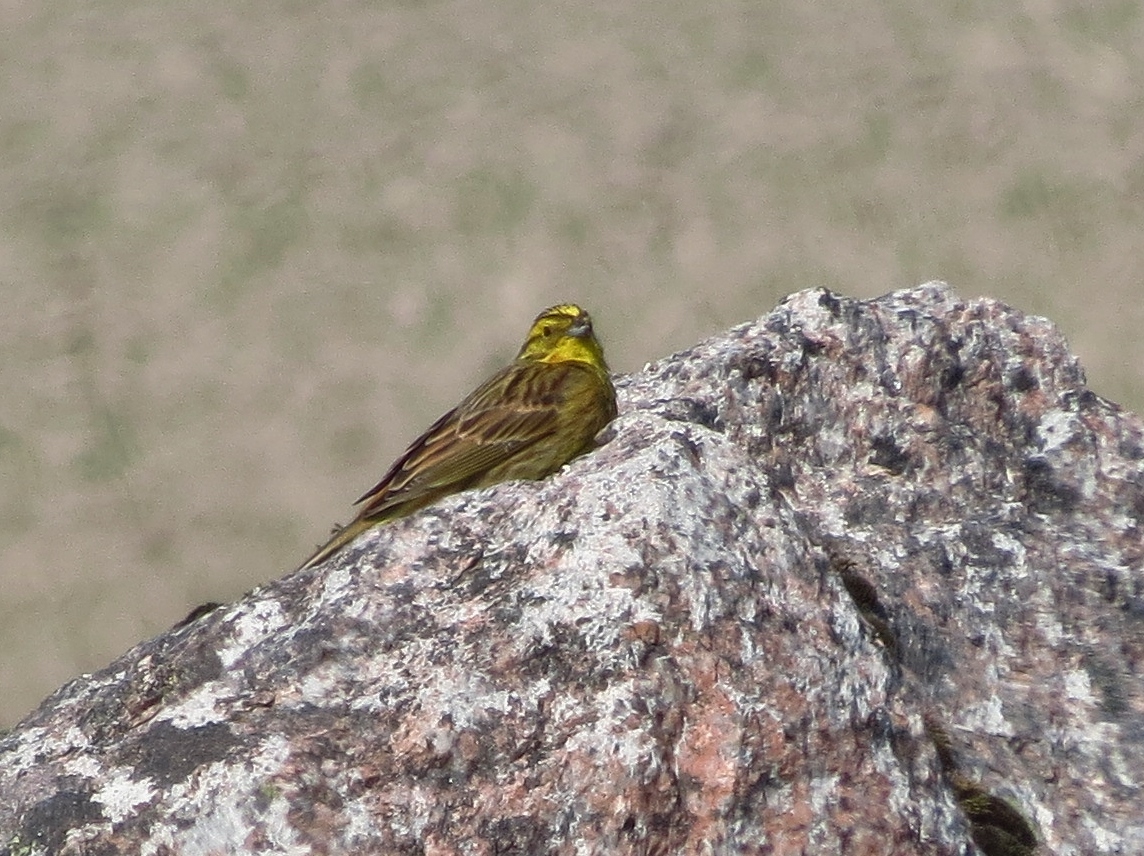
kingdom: Animalia
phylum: Chordata
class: Aves
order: Passeriformes
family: Emberizidae
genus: Emberiza
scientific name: Emberiza citrinella
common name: Yellowhammer
